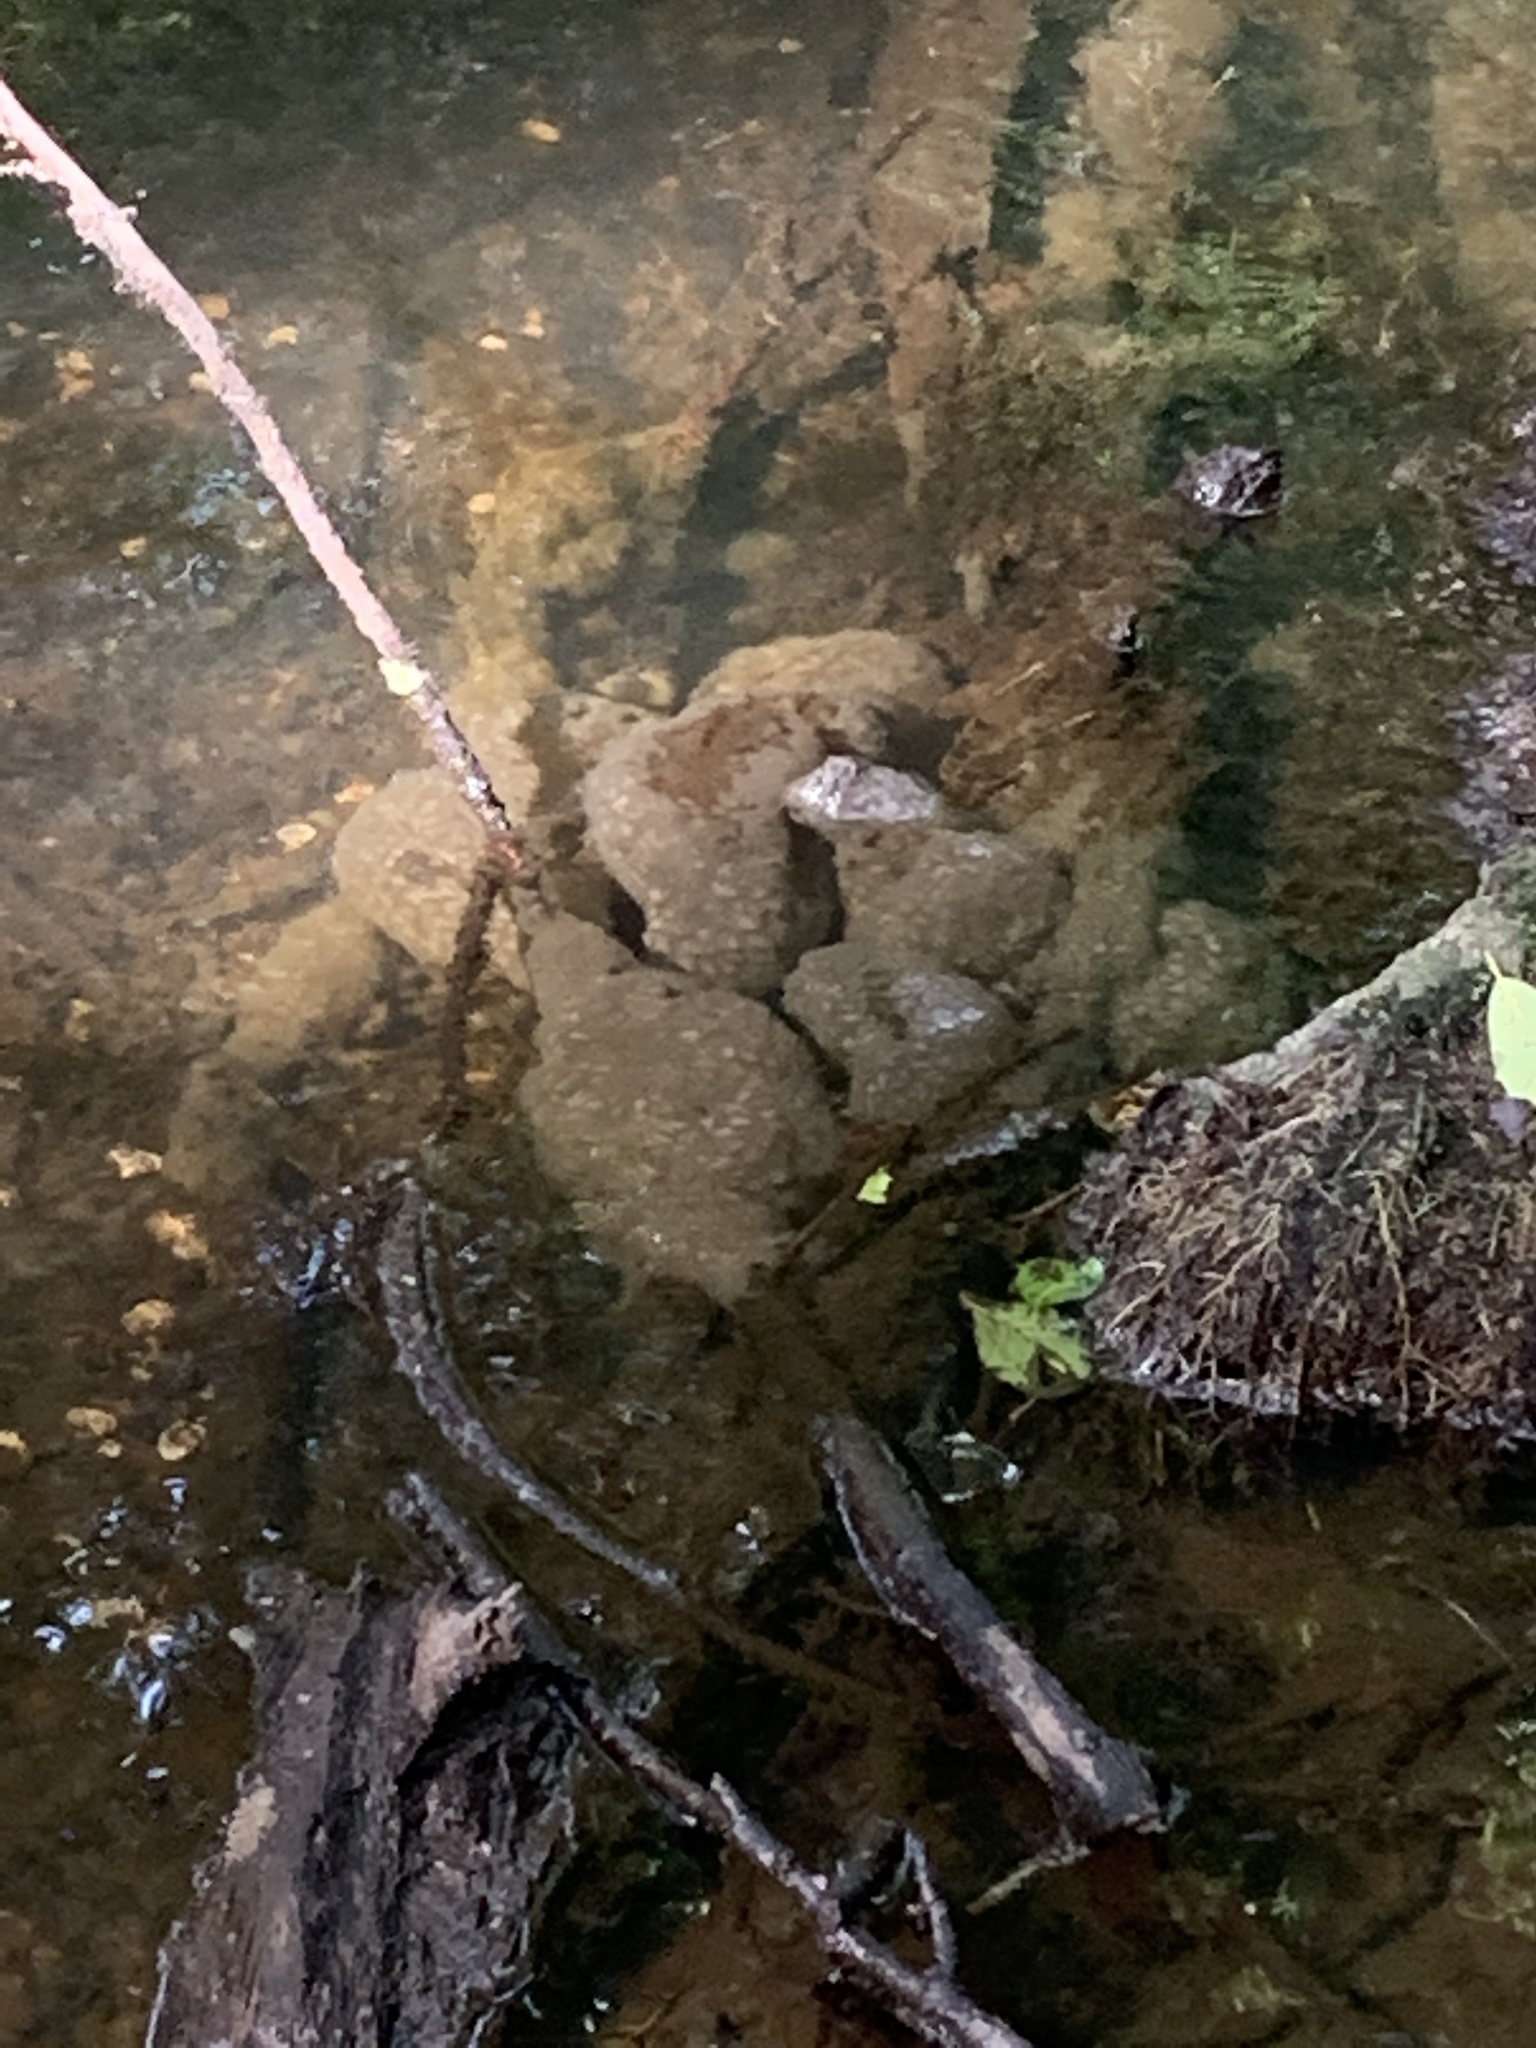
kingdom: Animalia
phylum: Bryozoa
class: Phylactolaemata
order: Plumatellida
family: Pectinatellidae
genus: Pectinatella
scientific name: Pectinatella magnifica
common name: Magnificent bryozoan
